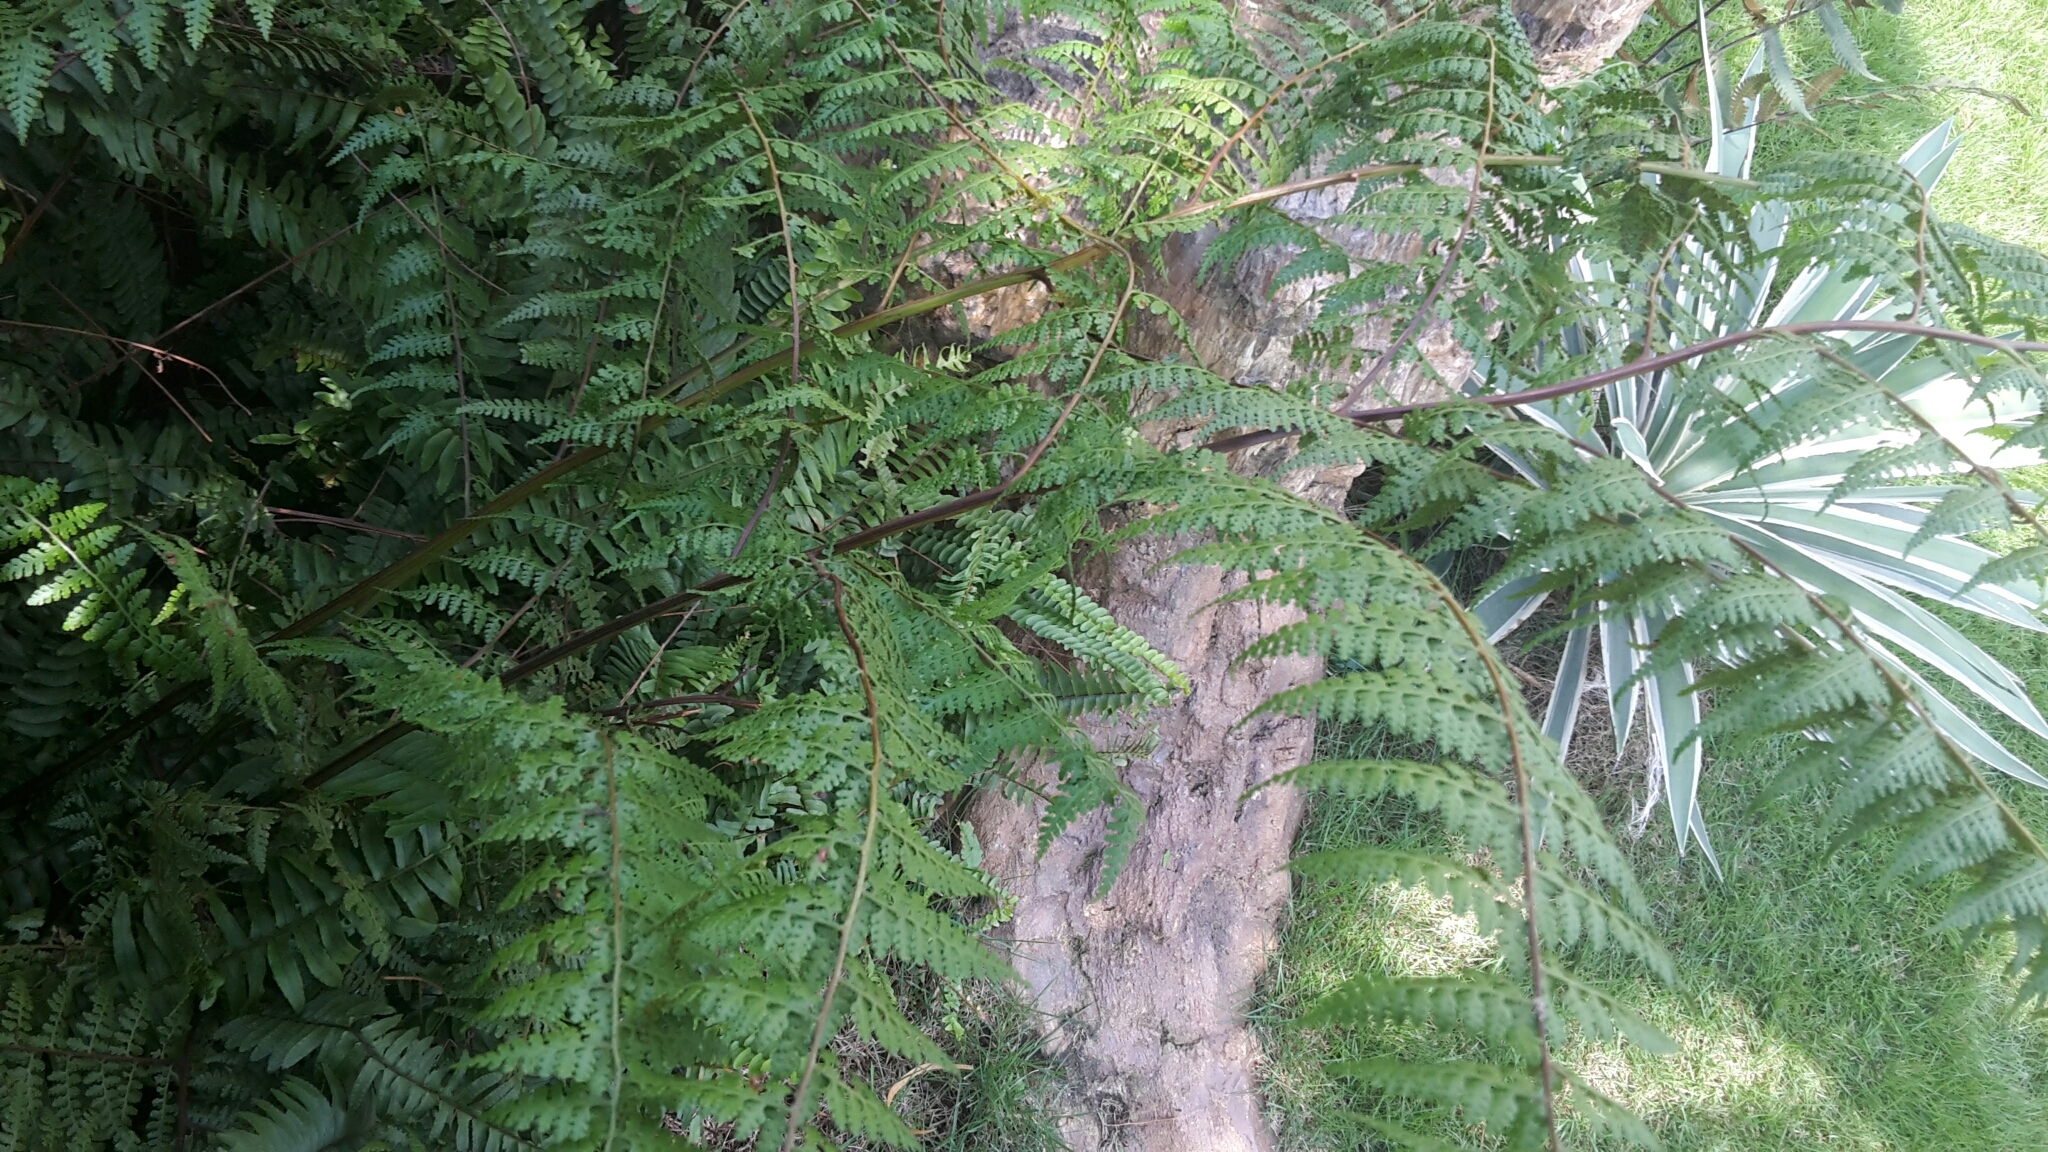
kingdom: Plantae
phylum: Tracheophyta
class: Polypodiopsida
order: Polypodiales
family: Dennstaedtiaceae
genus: Microlepia
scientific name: Microlepia nepalensis
